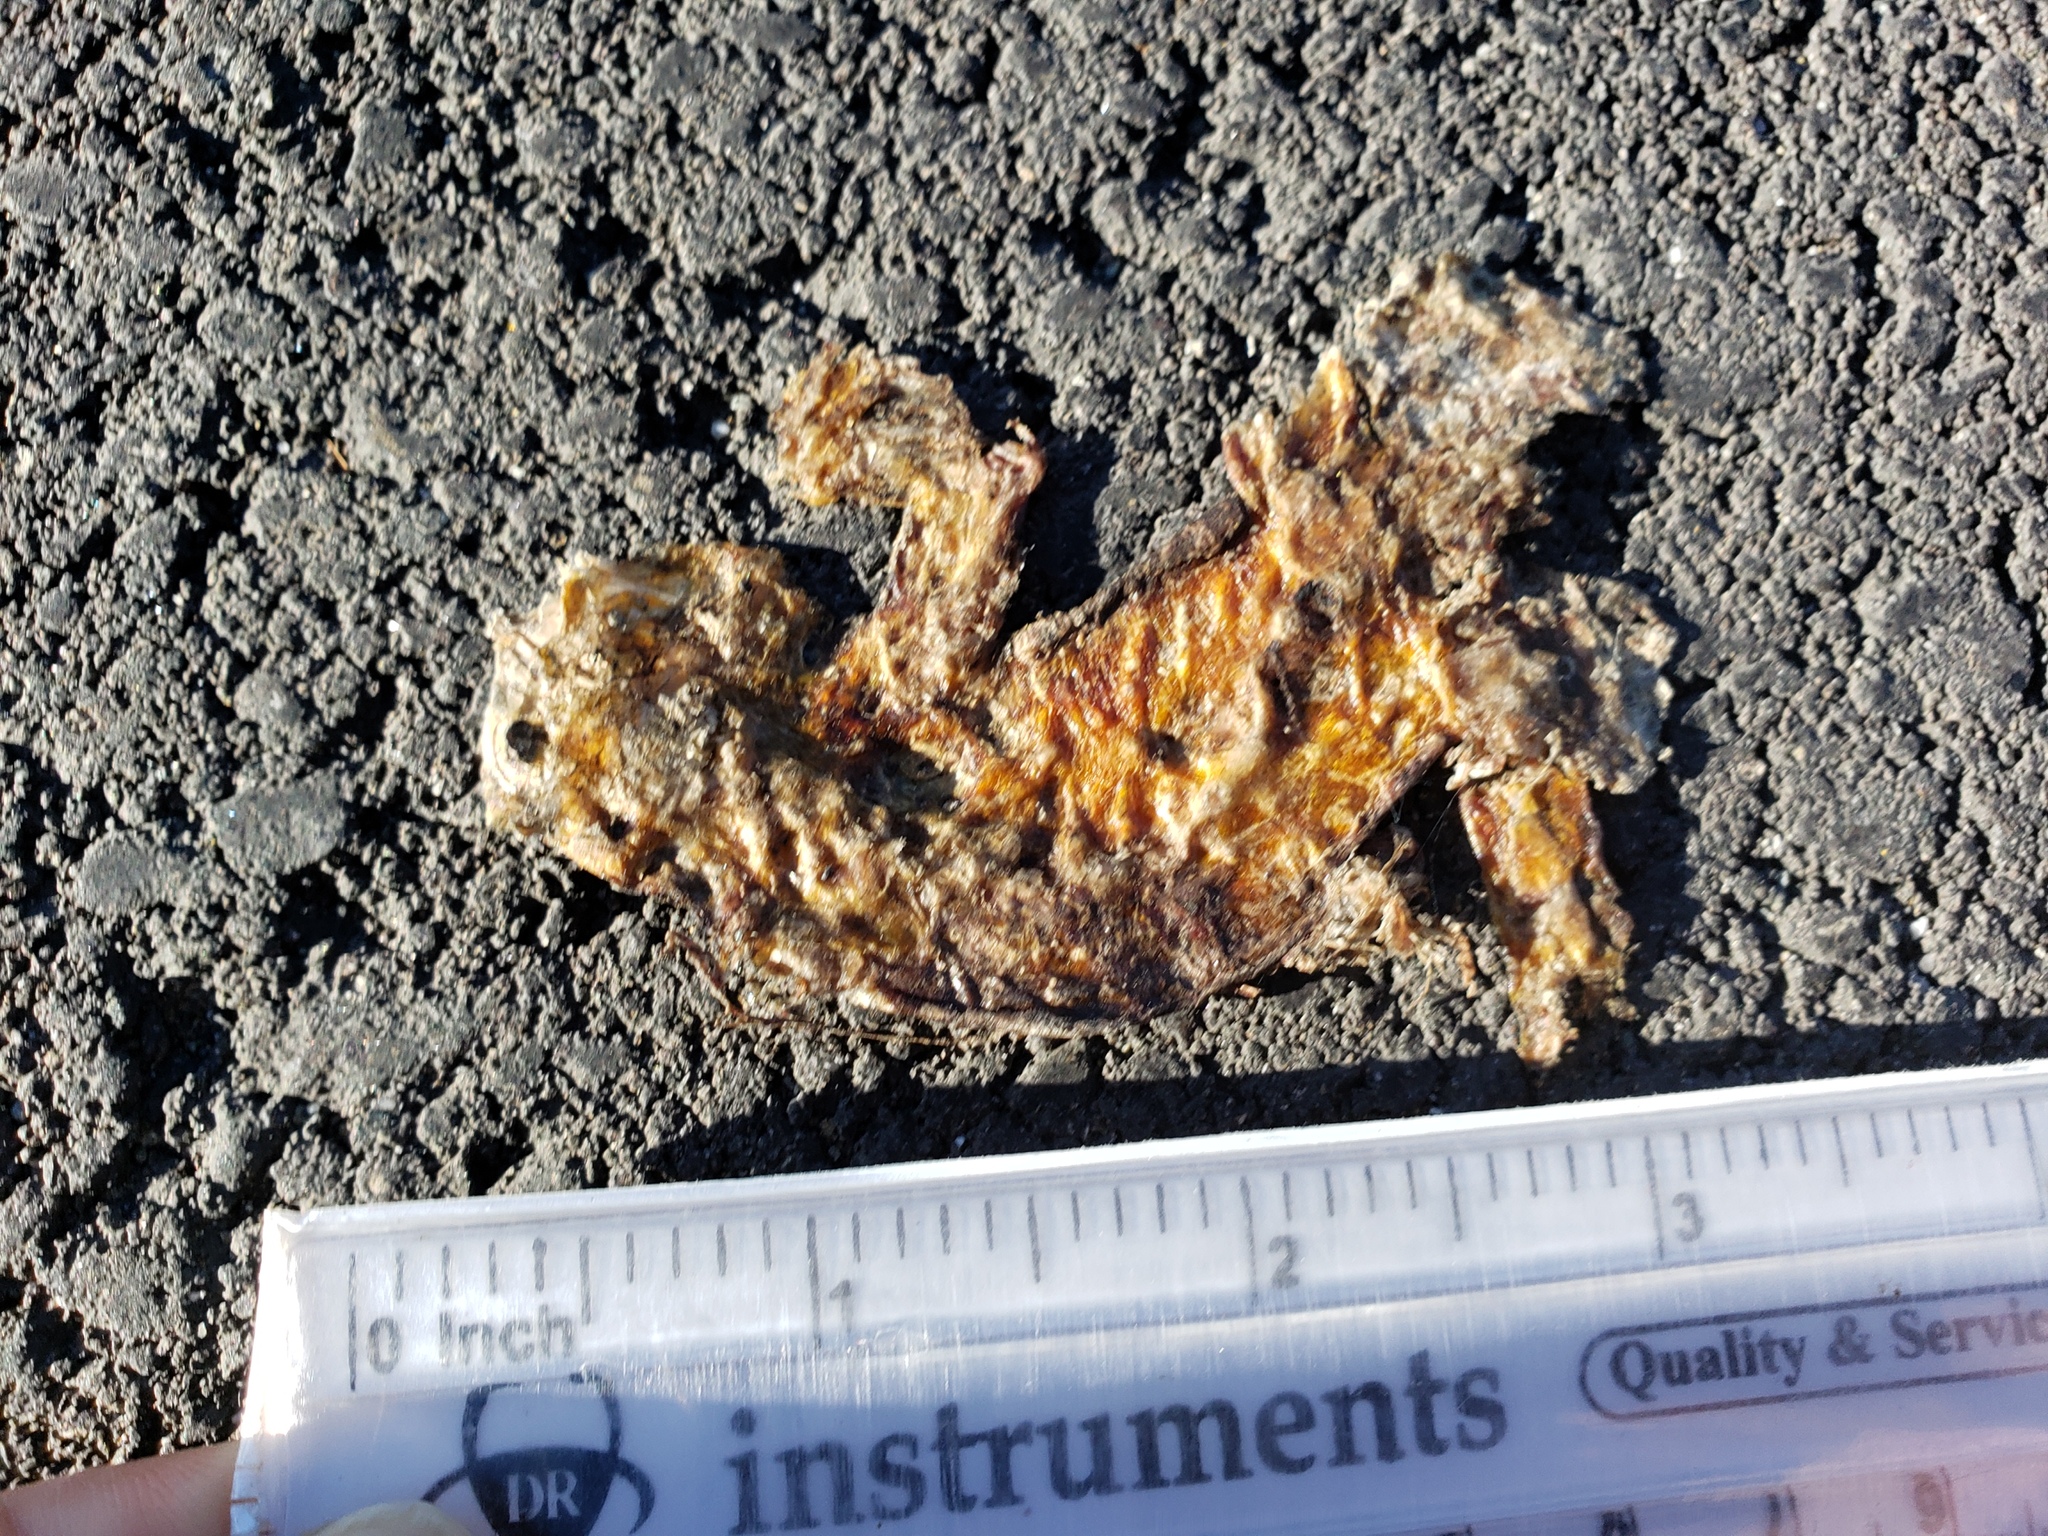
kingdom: Animalia
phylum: Chordata
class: Amphibia
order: Caudata
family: Salamandridae
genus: Taricha
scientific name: Taricha
